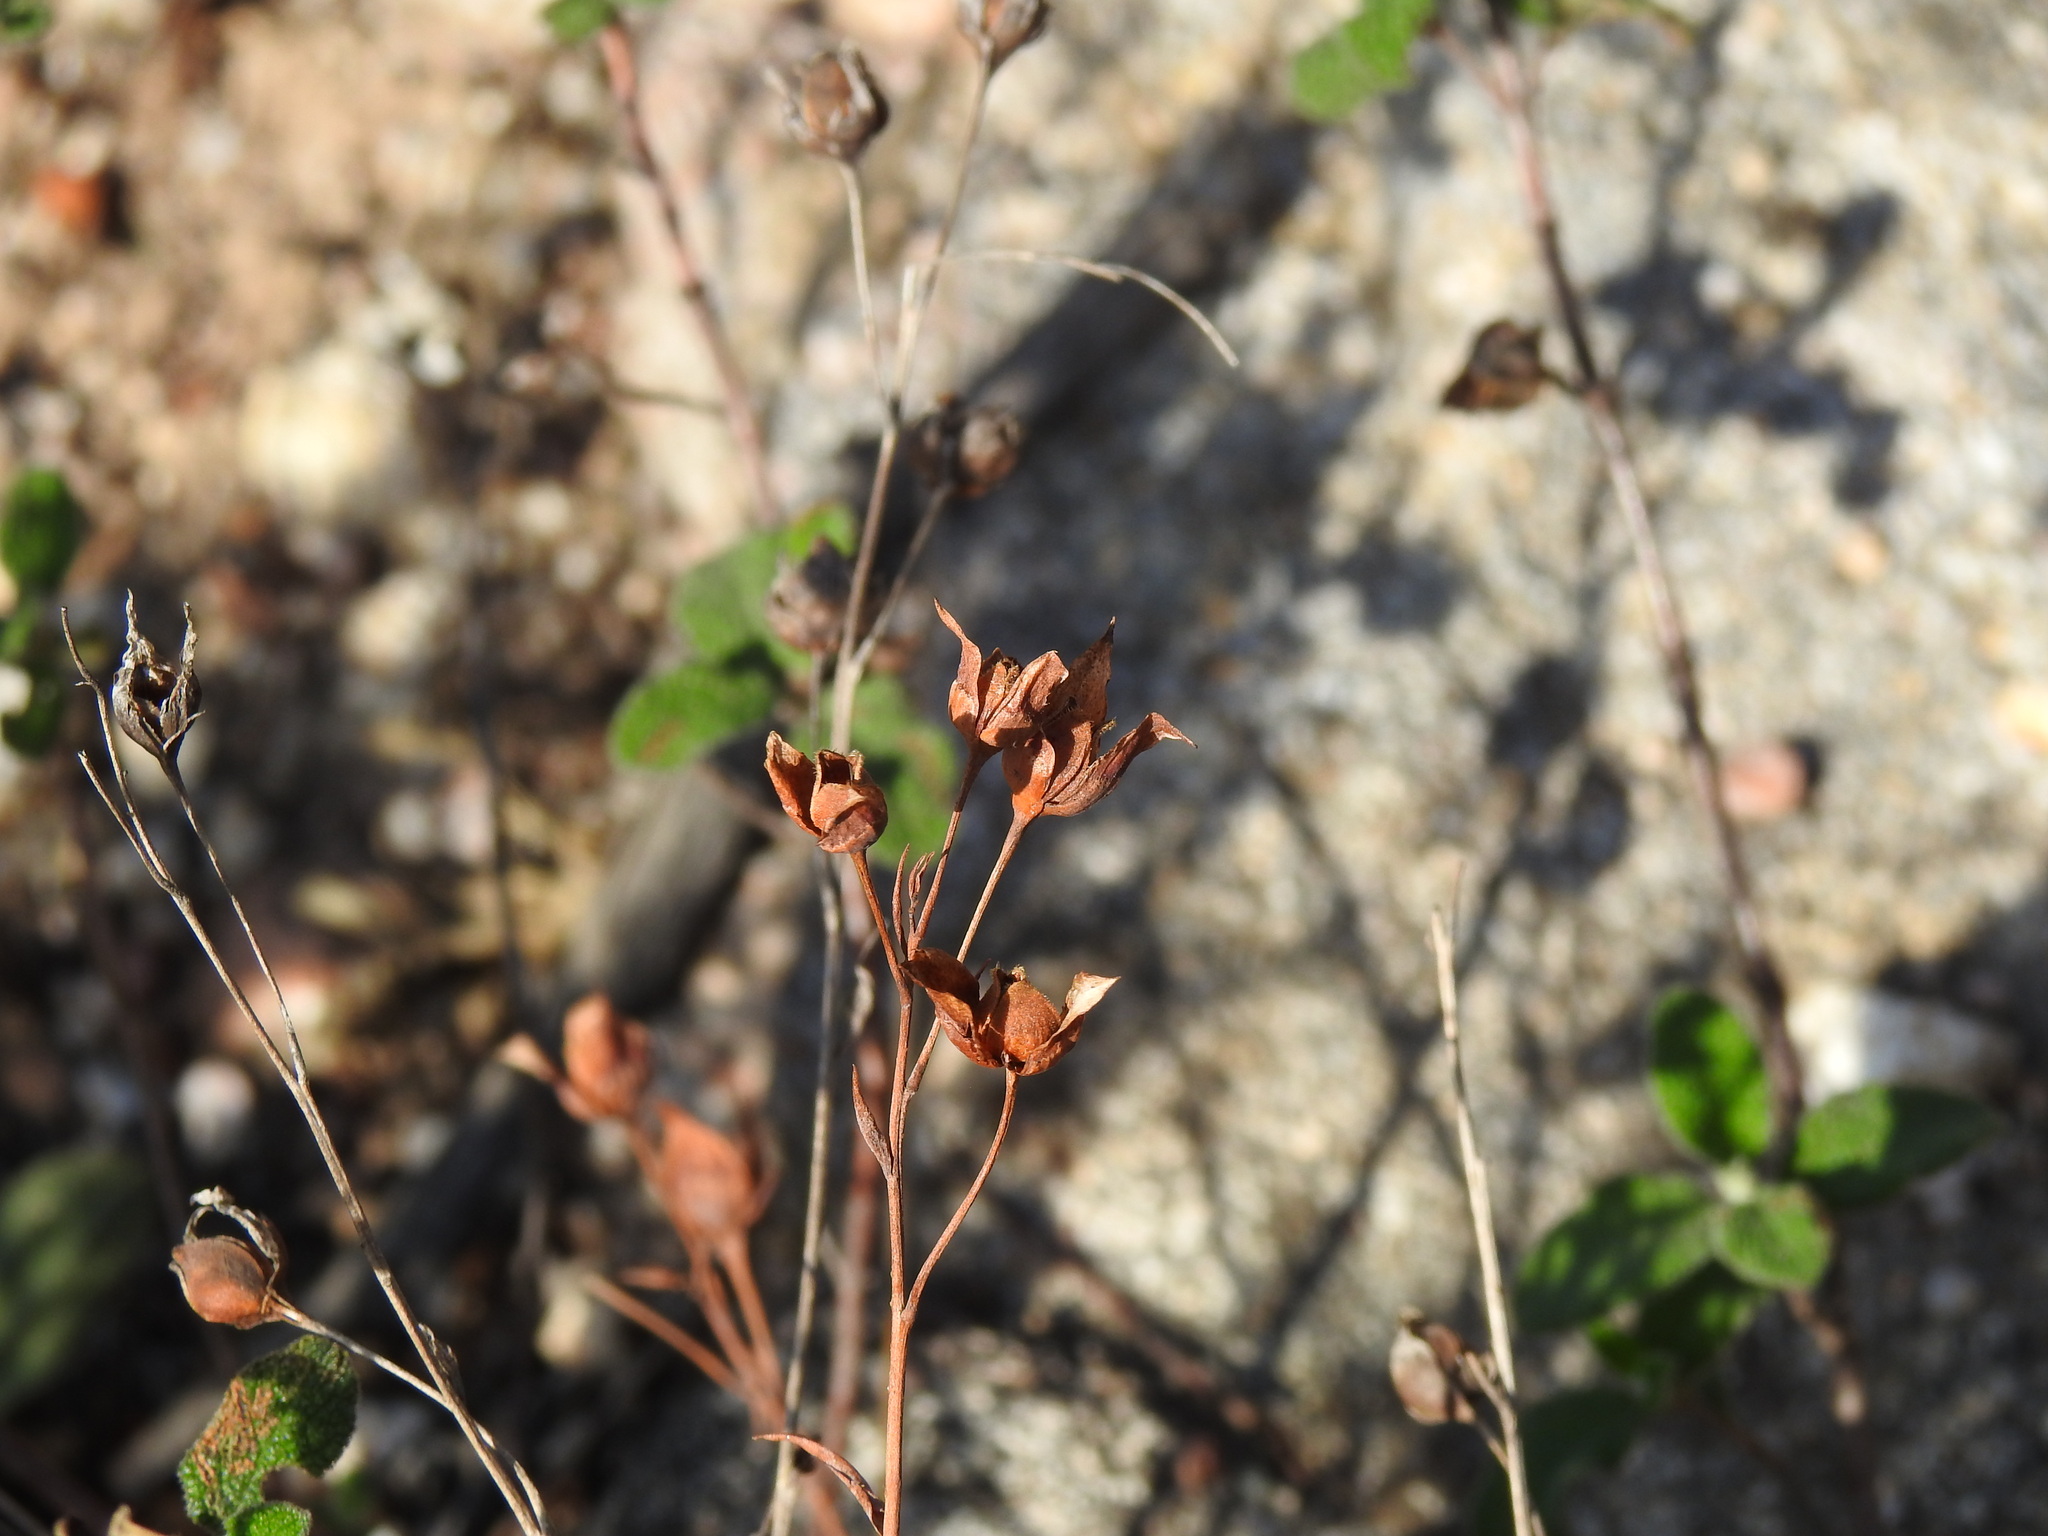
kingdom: Plantae
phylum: Tracheophyta
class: Magnoliopsida
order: Malvales
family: Cistaceae
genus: Tuberaria
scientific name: Tuberaria lignosa
